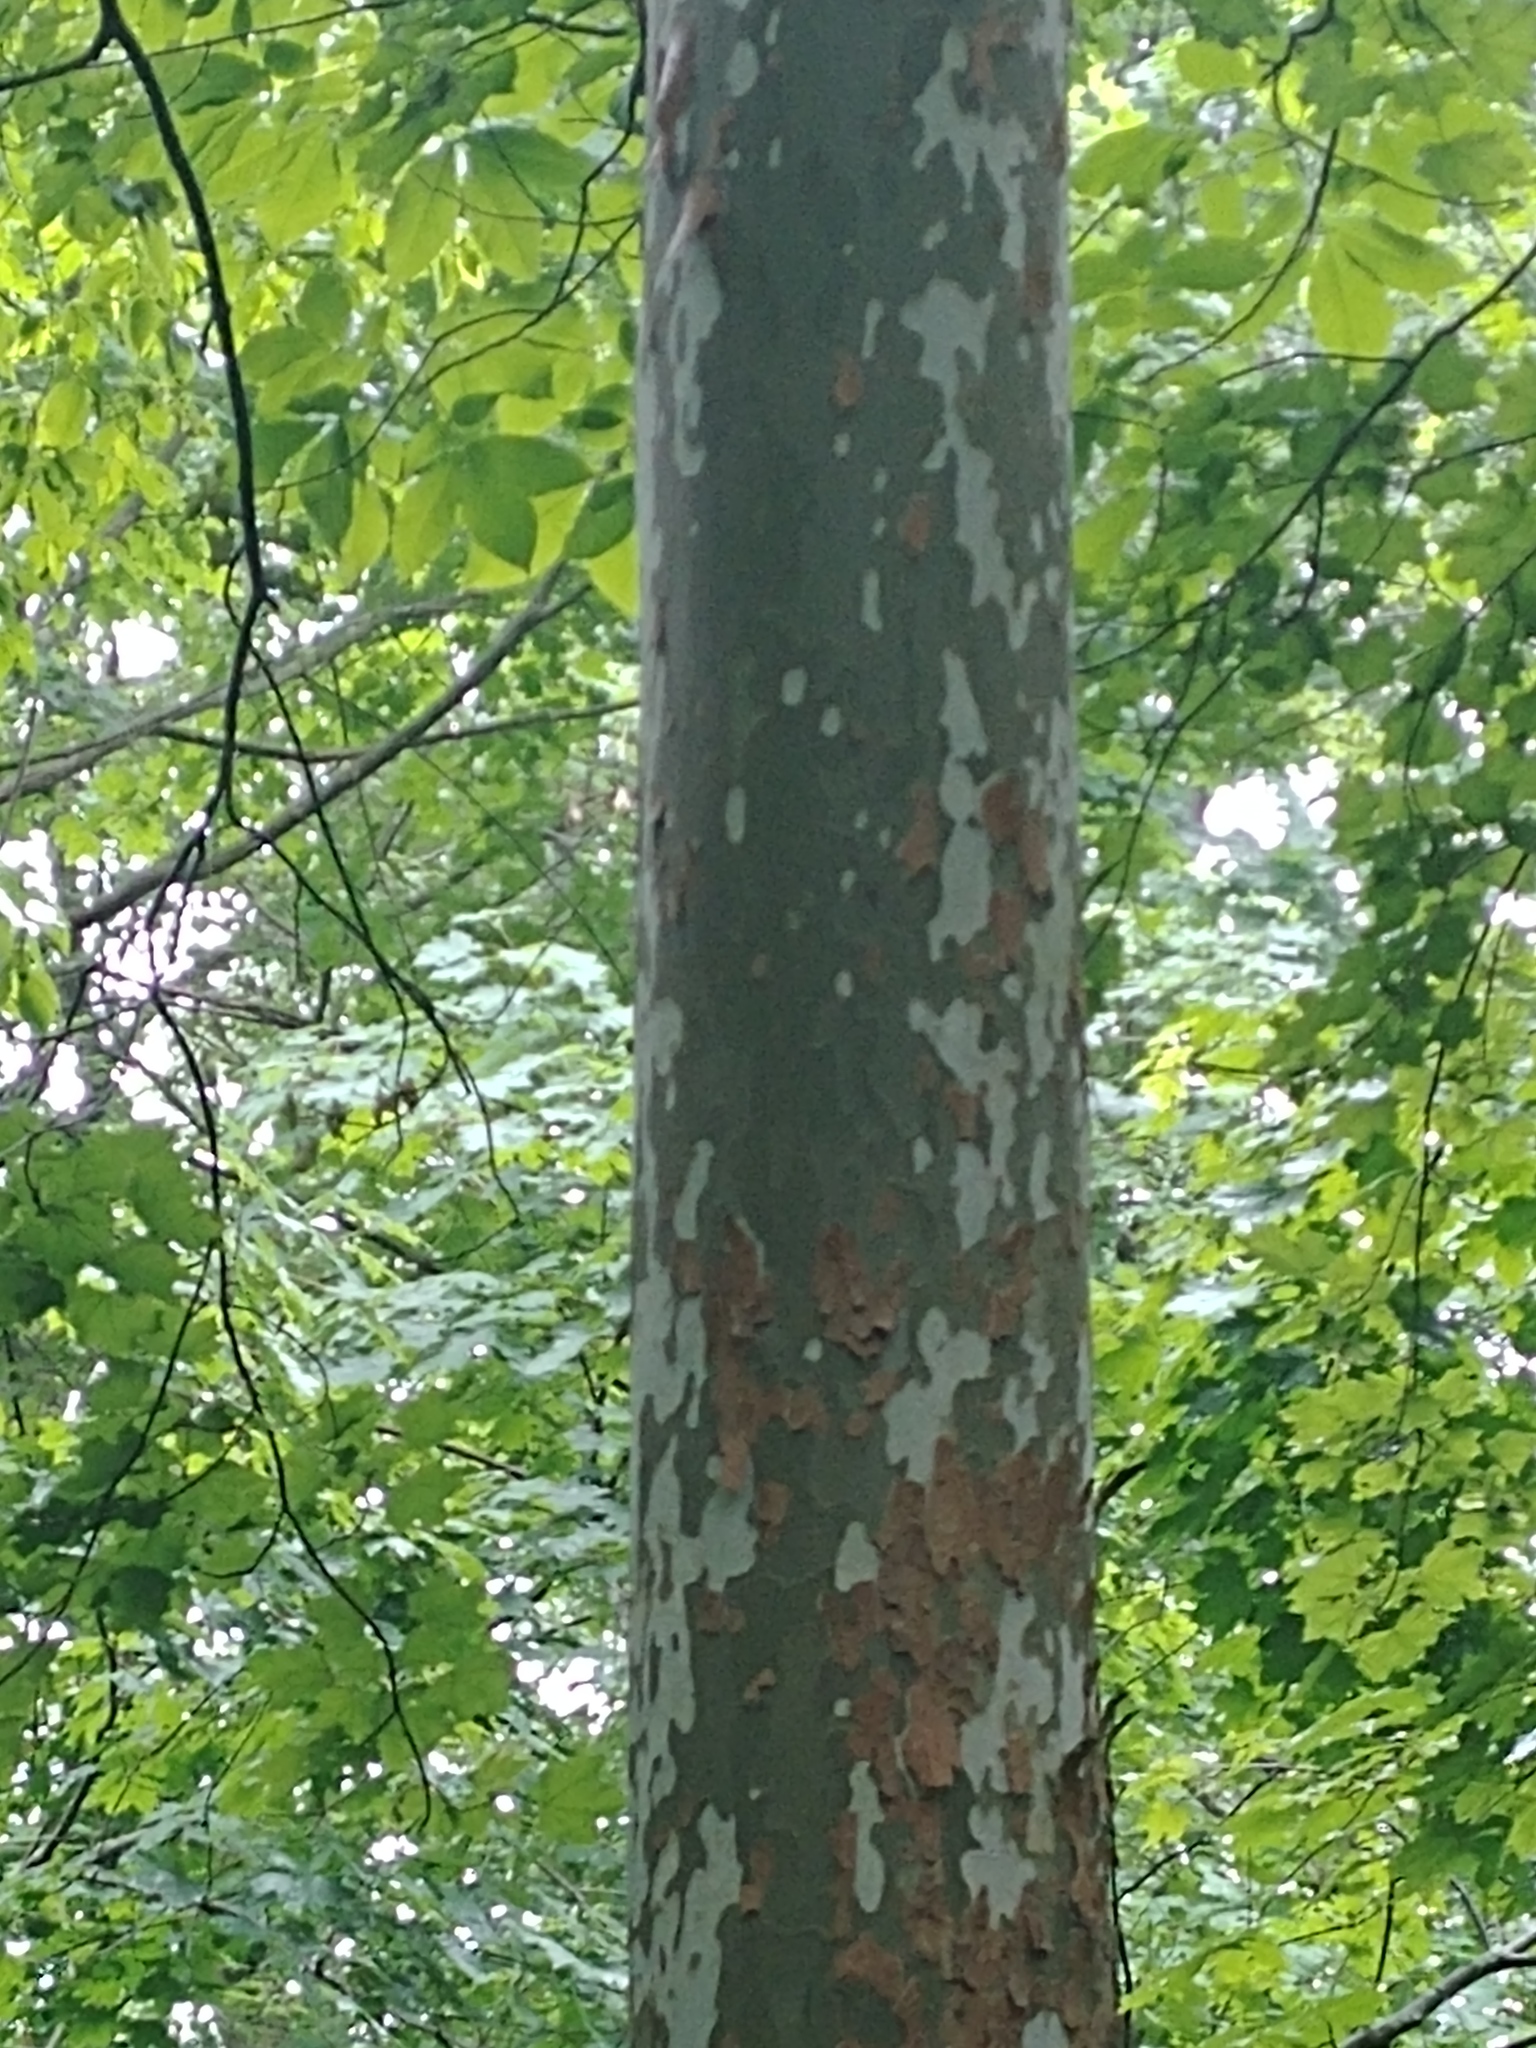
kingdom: Plantae
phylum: Tracheophyta
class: Magnoliopsida
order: Proteales
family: Platanaceae
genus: Platanus
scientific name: Platanus occidentalis
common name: American sycamore
